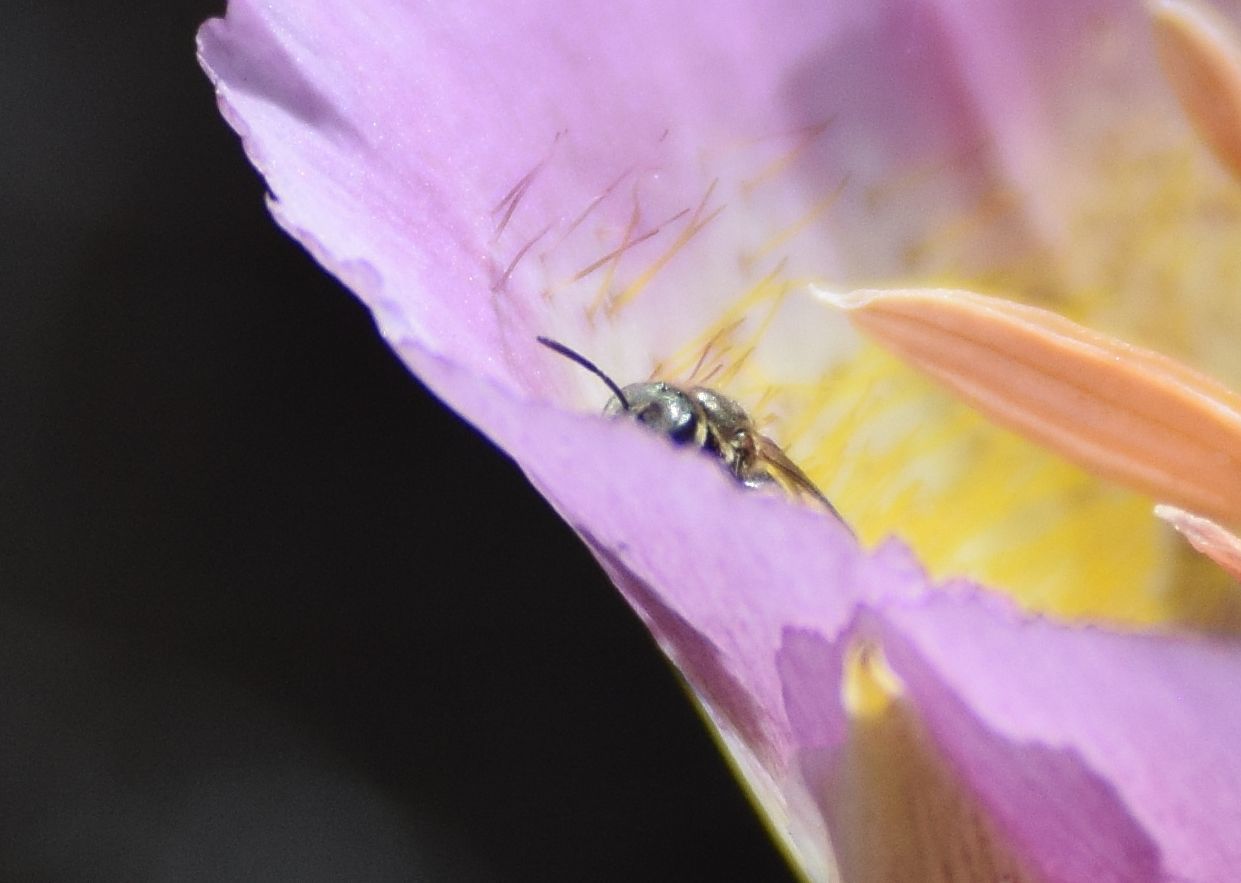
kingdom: Animalia
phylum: Arthropoda
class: Insecta
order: Hymenoptera
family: Halictidae
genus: Halictus
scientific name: Halictus tripartitus
